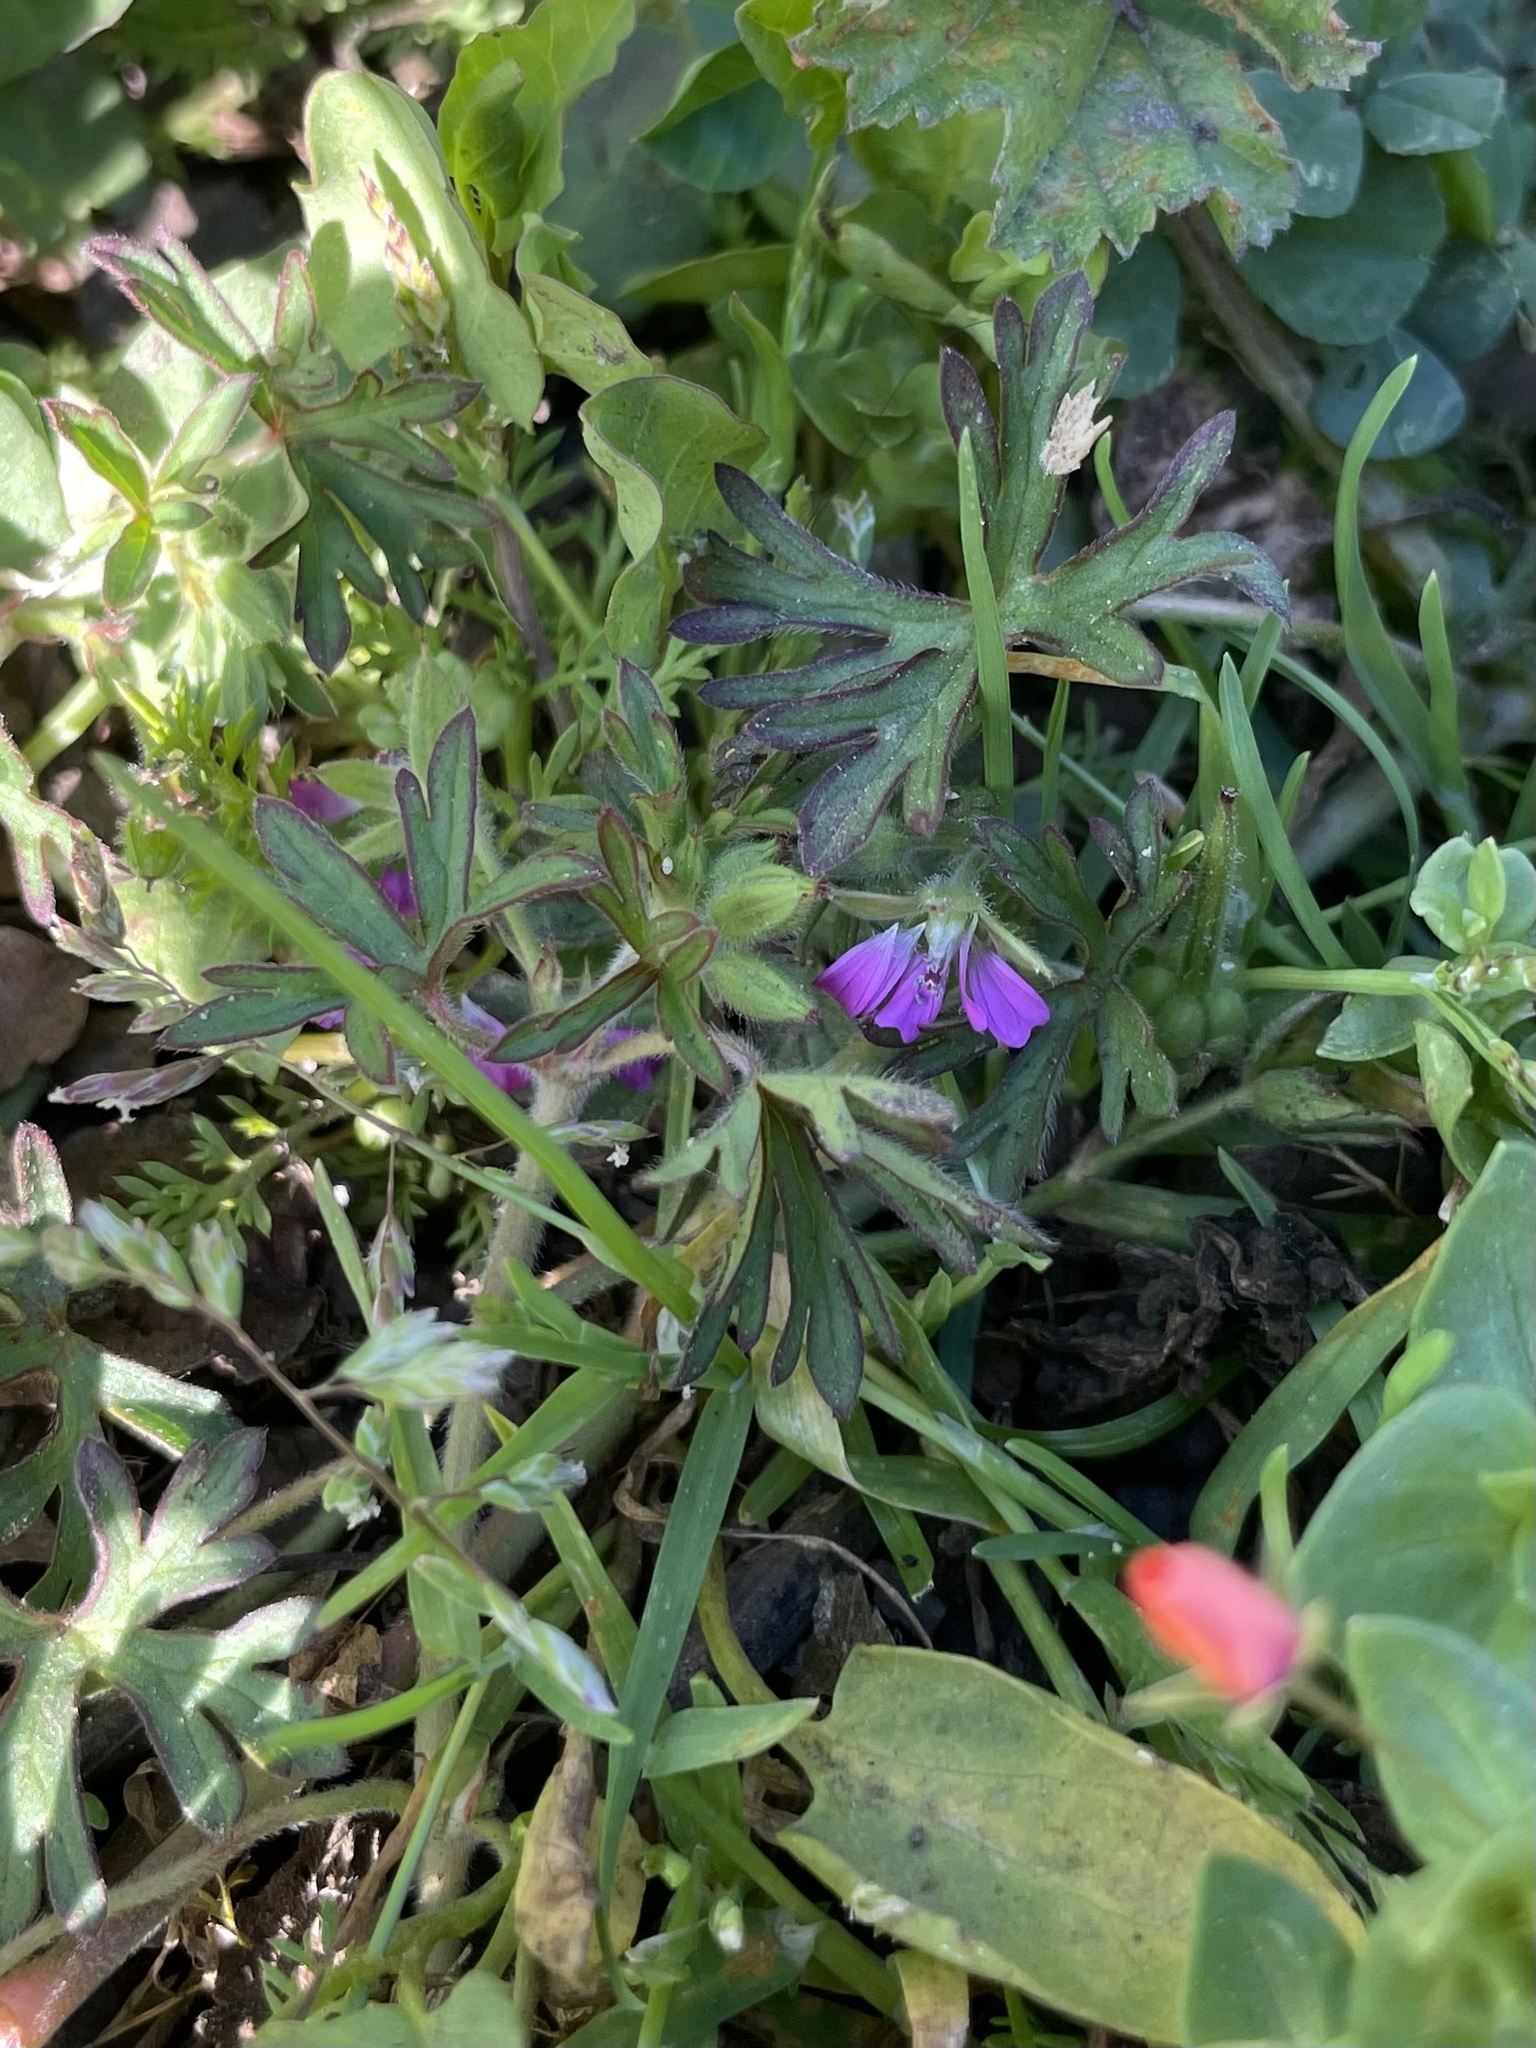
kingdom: Plantae
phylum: Tracheophyta
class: Magnoliopsida
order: Geraniales
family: Geraniaceae
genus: Geranium
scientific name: Geranium dissectum
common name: Cut-leaved crane's-bill
